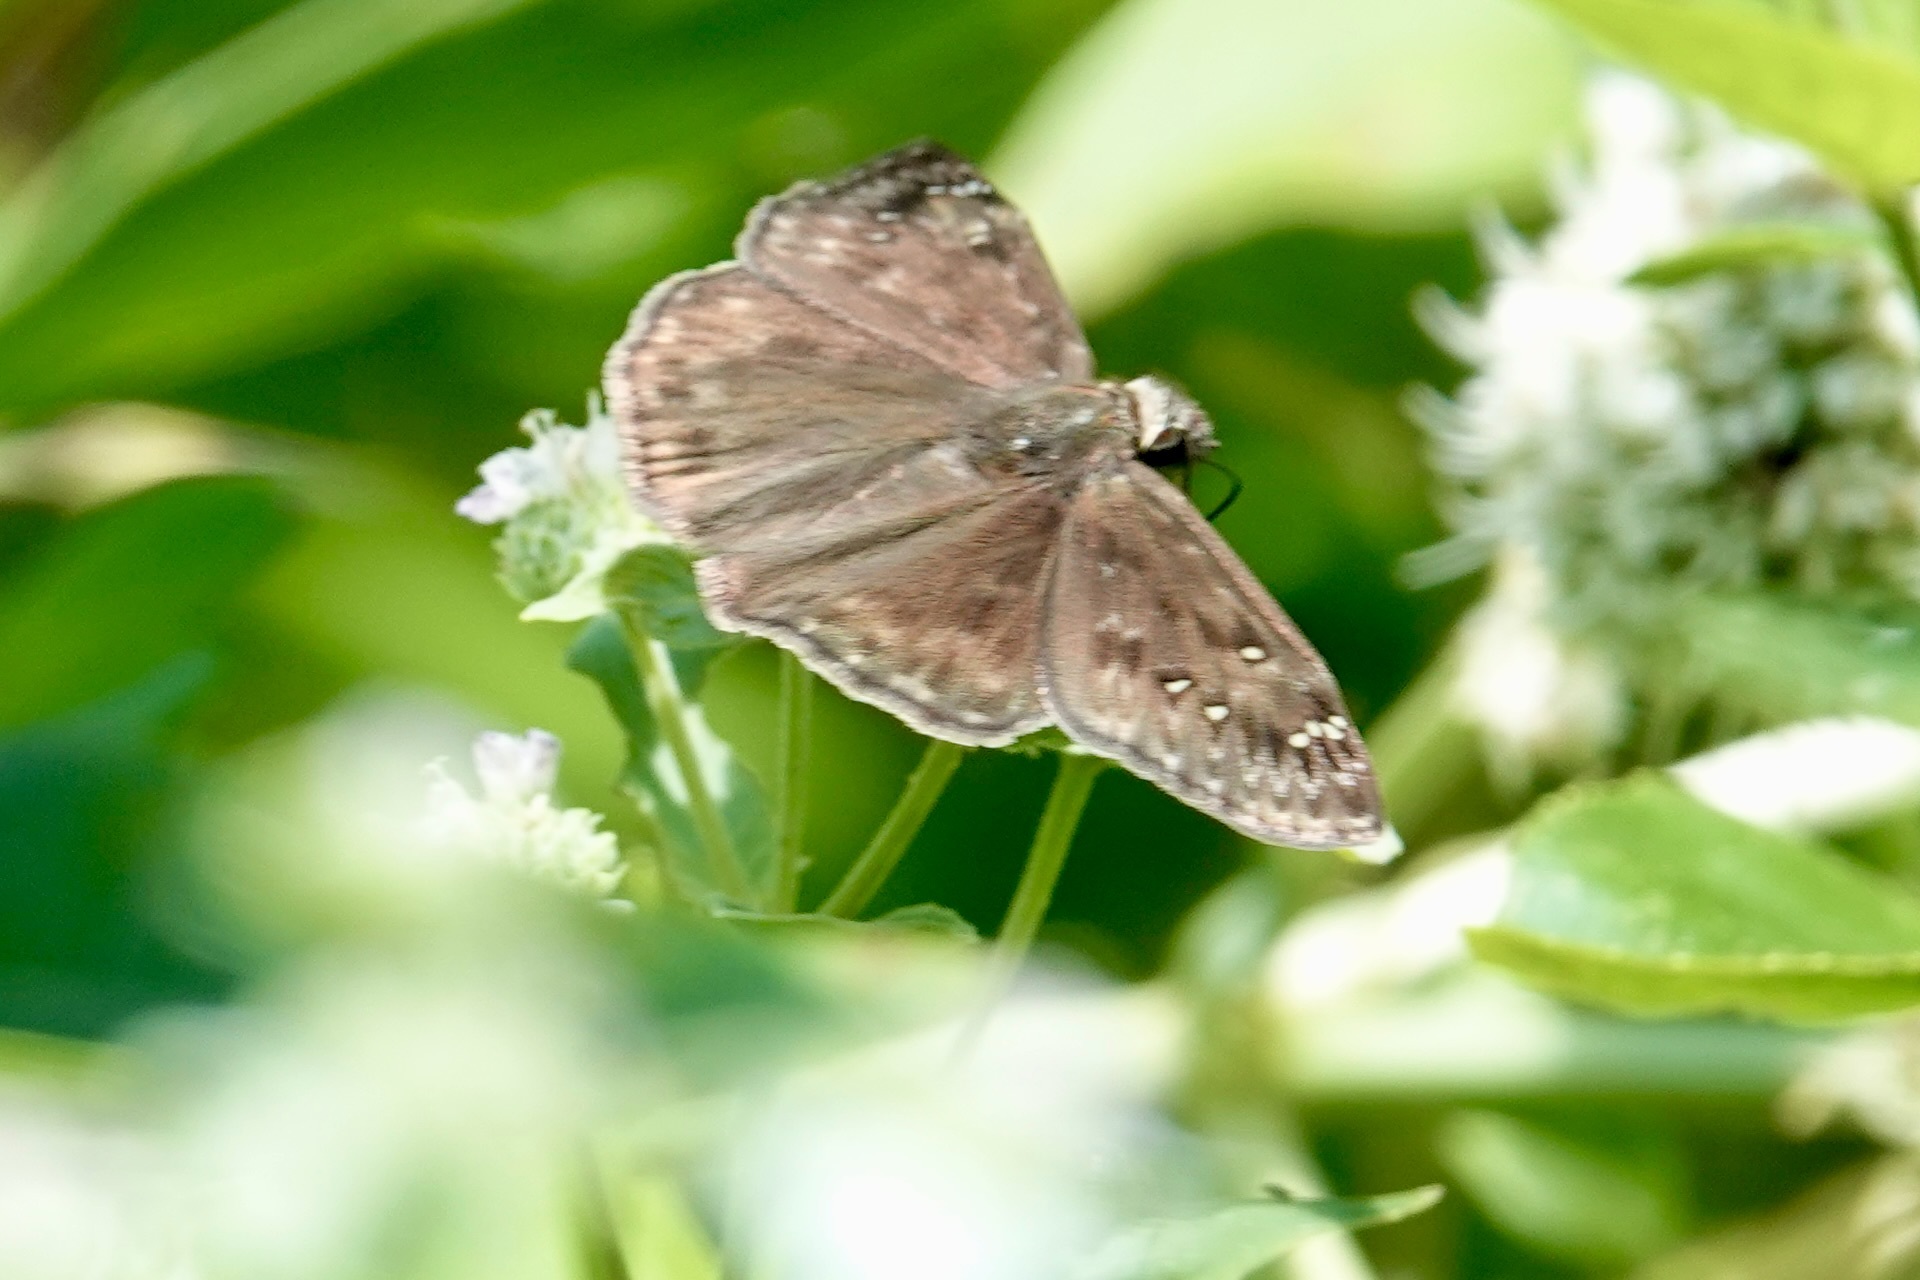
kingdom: Animalia
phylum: Arthropoda
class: Insecta
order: Lepidoptera
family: Hesperiidae
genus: Erynnis
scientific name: Erynnis horatius
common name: Horace's duskywing
